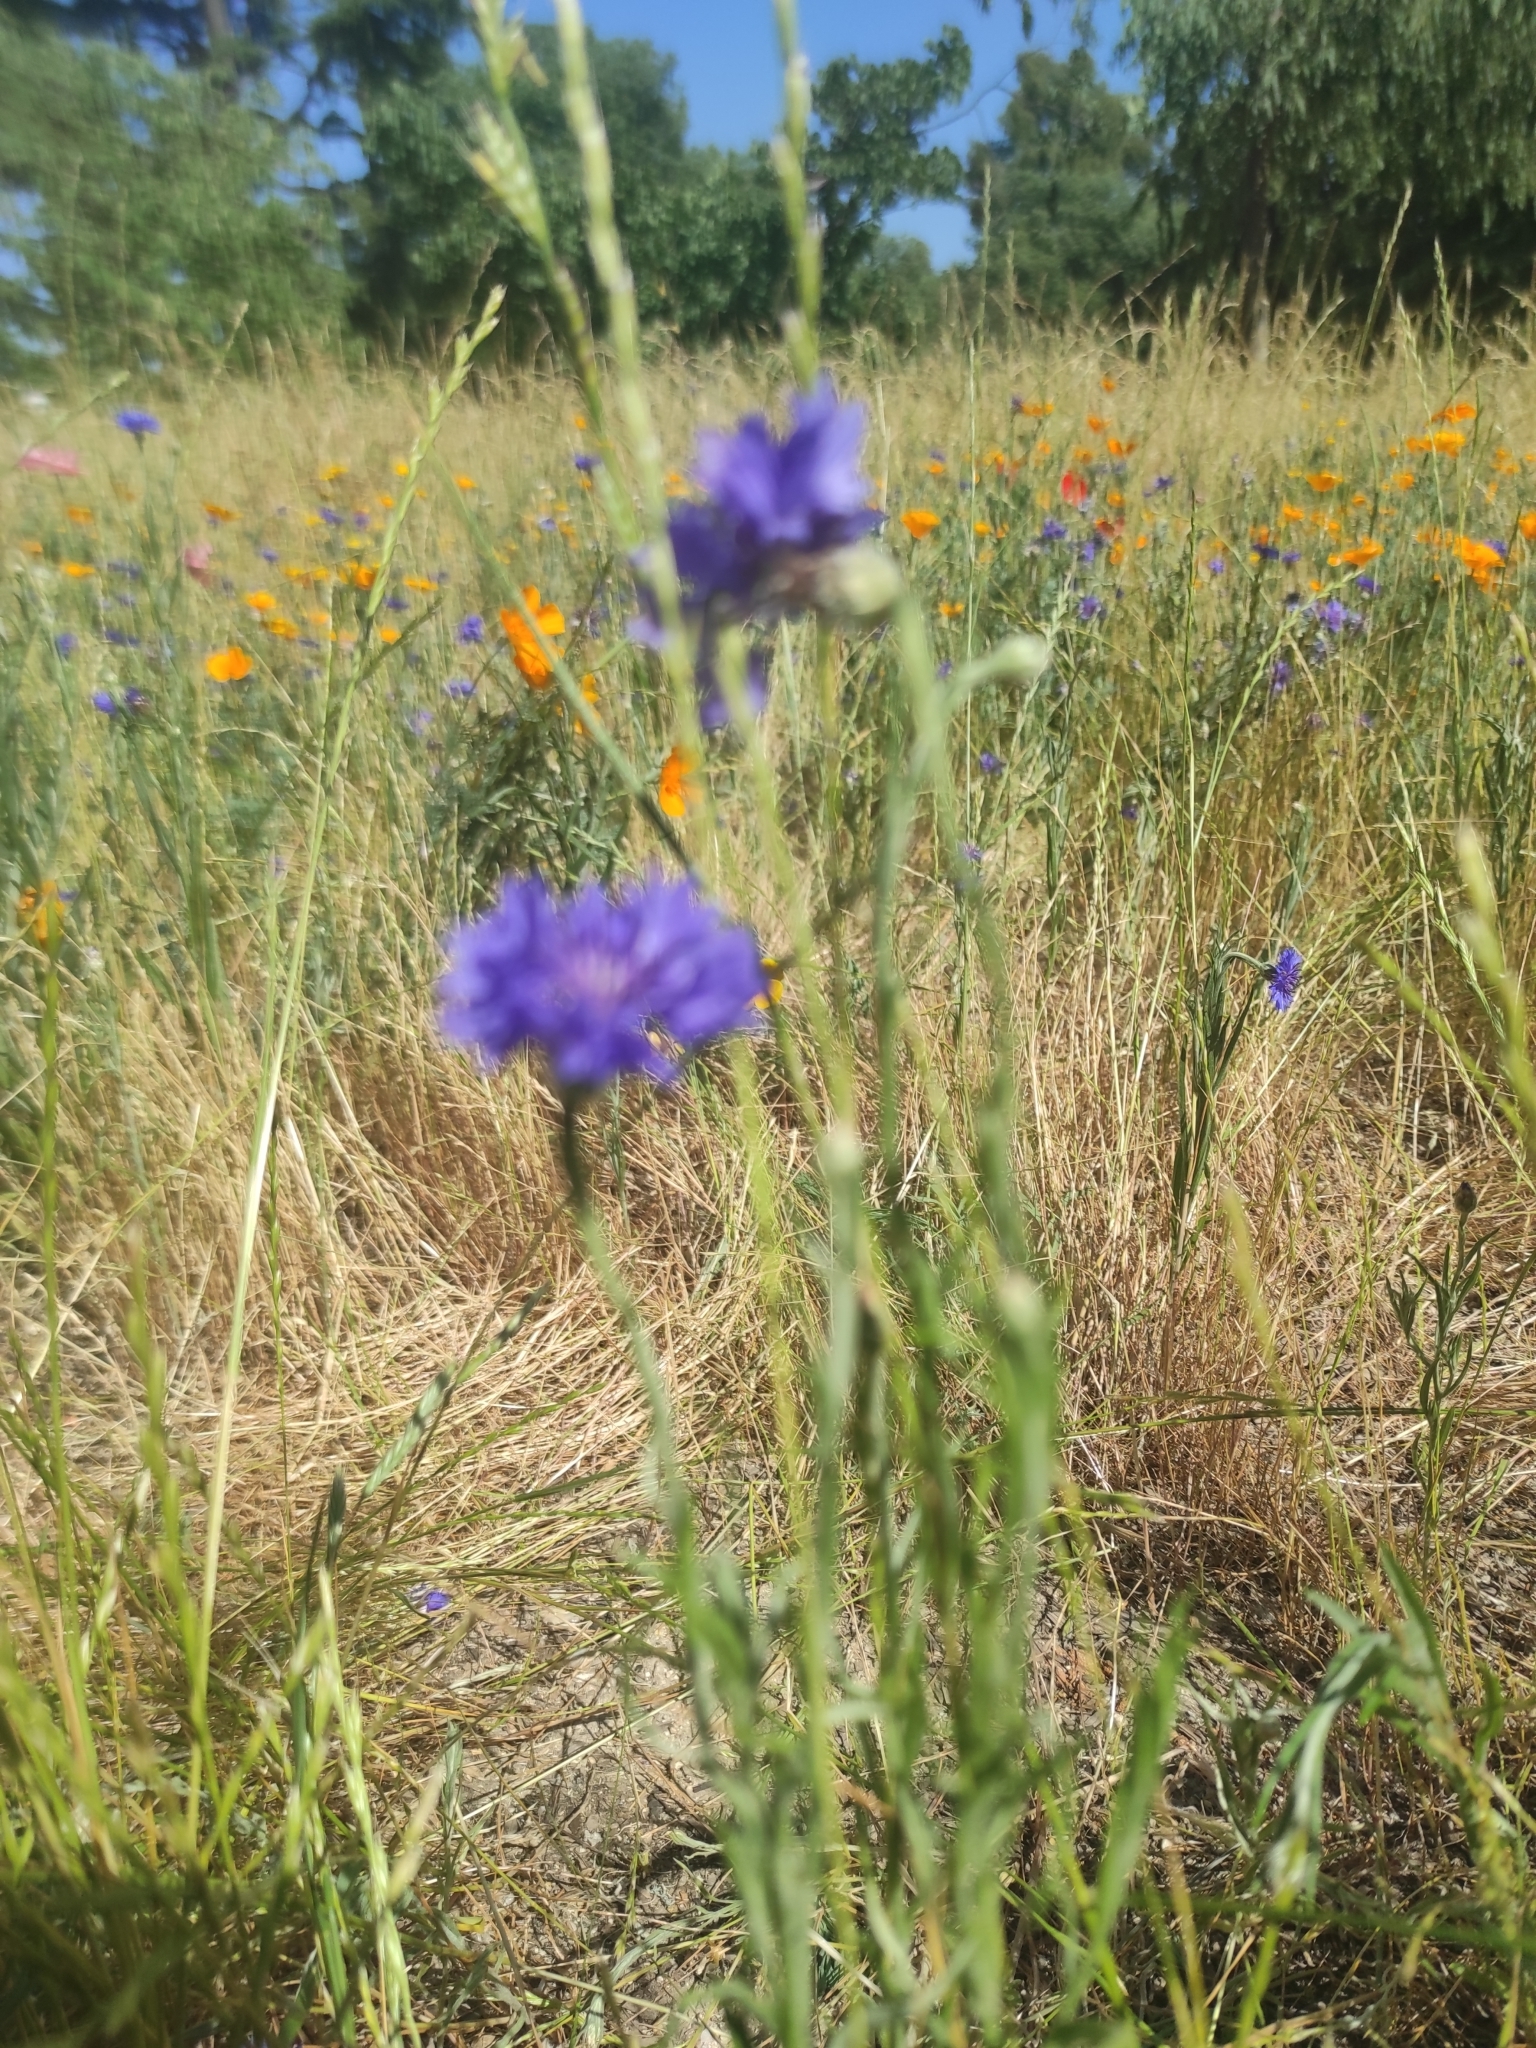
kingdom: Plantae
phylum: Tracheophyta
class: Magnoliopsida
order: Asterales
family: Asteraceae
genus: Centaurea
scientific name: Centaurea cyanus
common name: Cornflower
